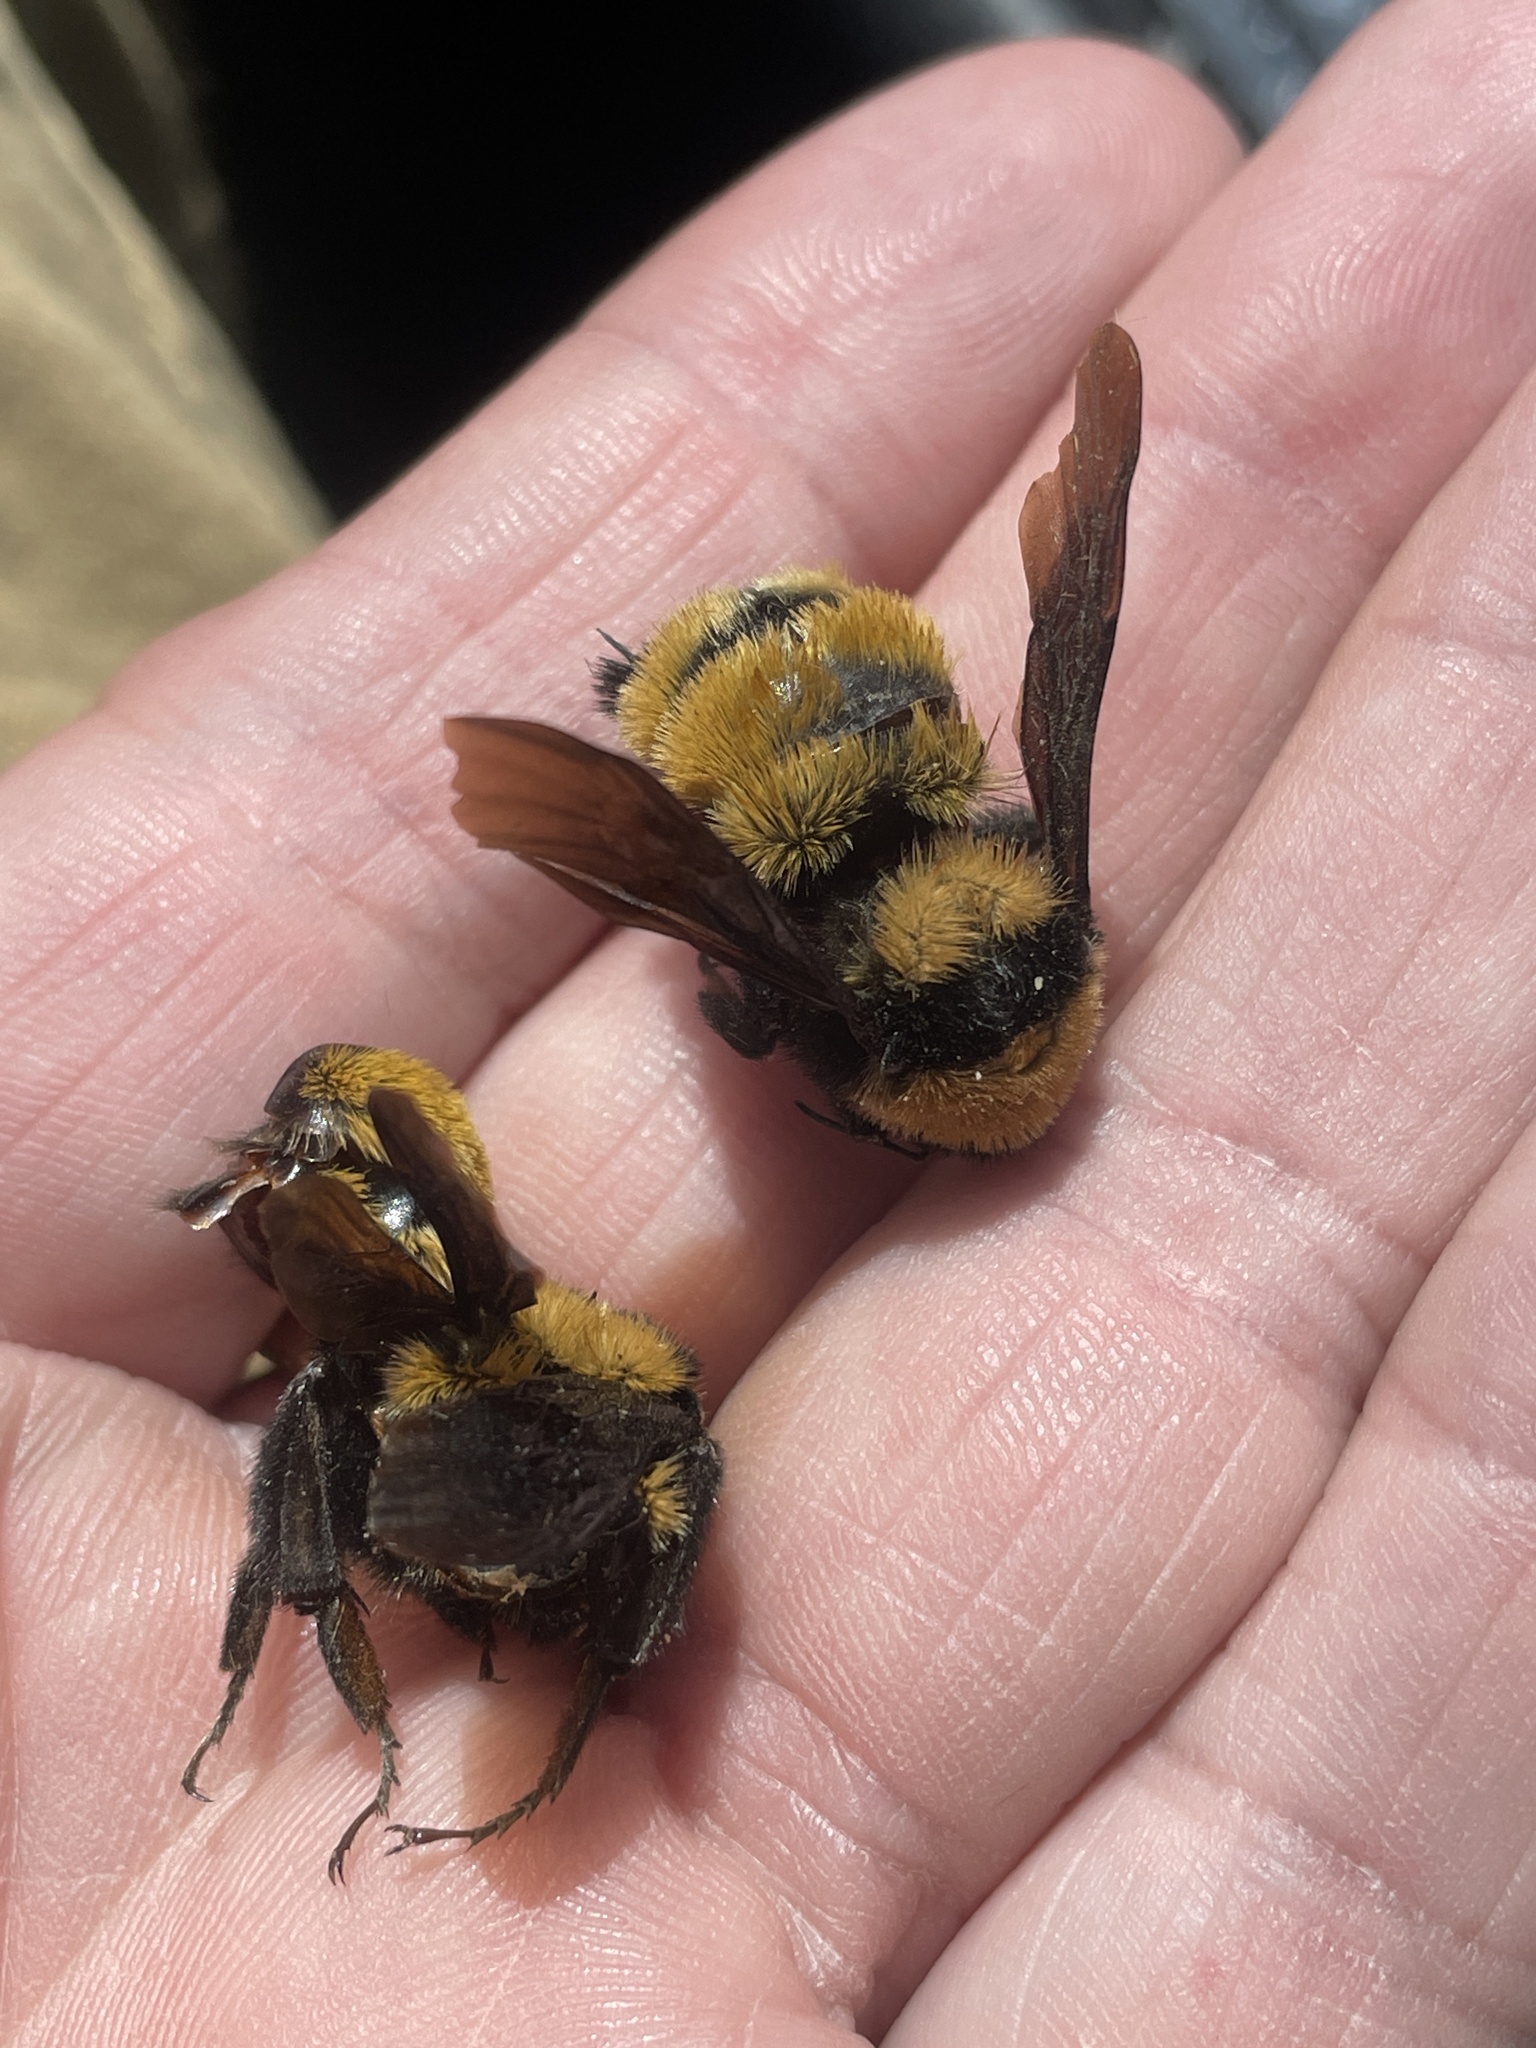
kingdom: Animalia
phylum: Arthropoda
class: Insecta
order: Hymenoptera
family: Apidae
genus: Bombus
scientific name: Bombus sonorus
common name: Sonoran bumble bee
